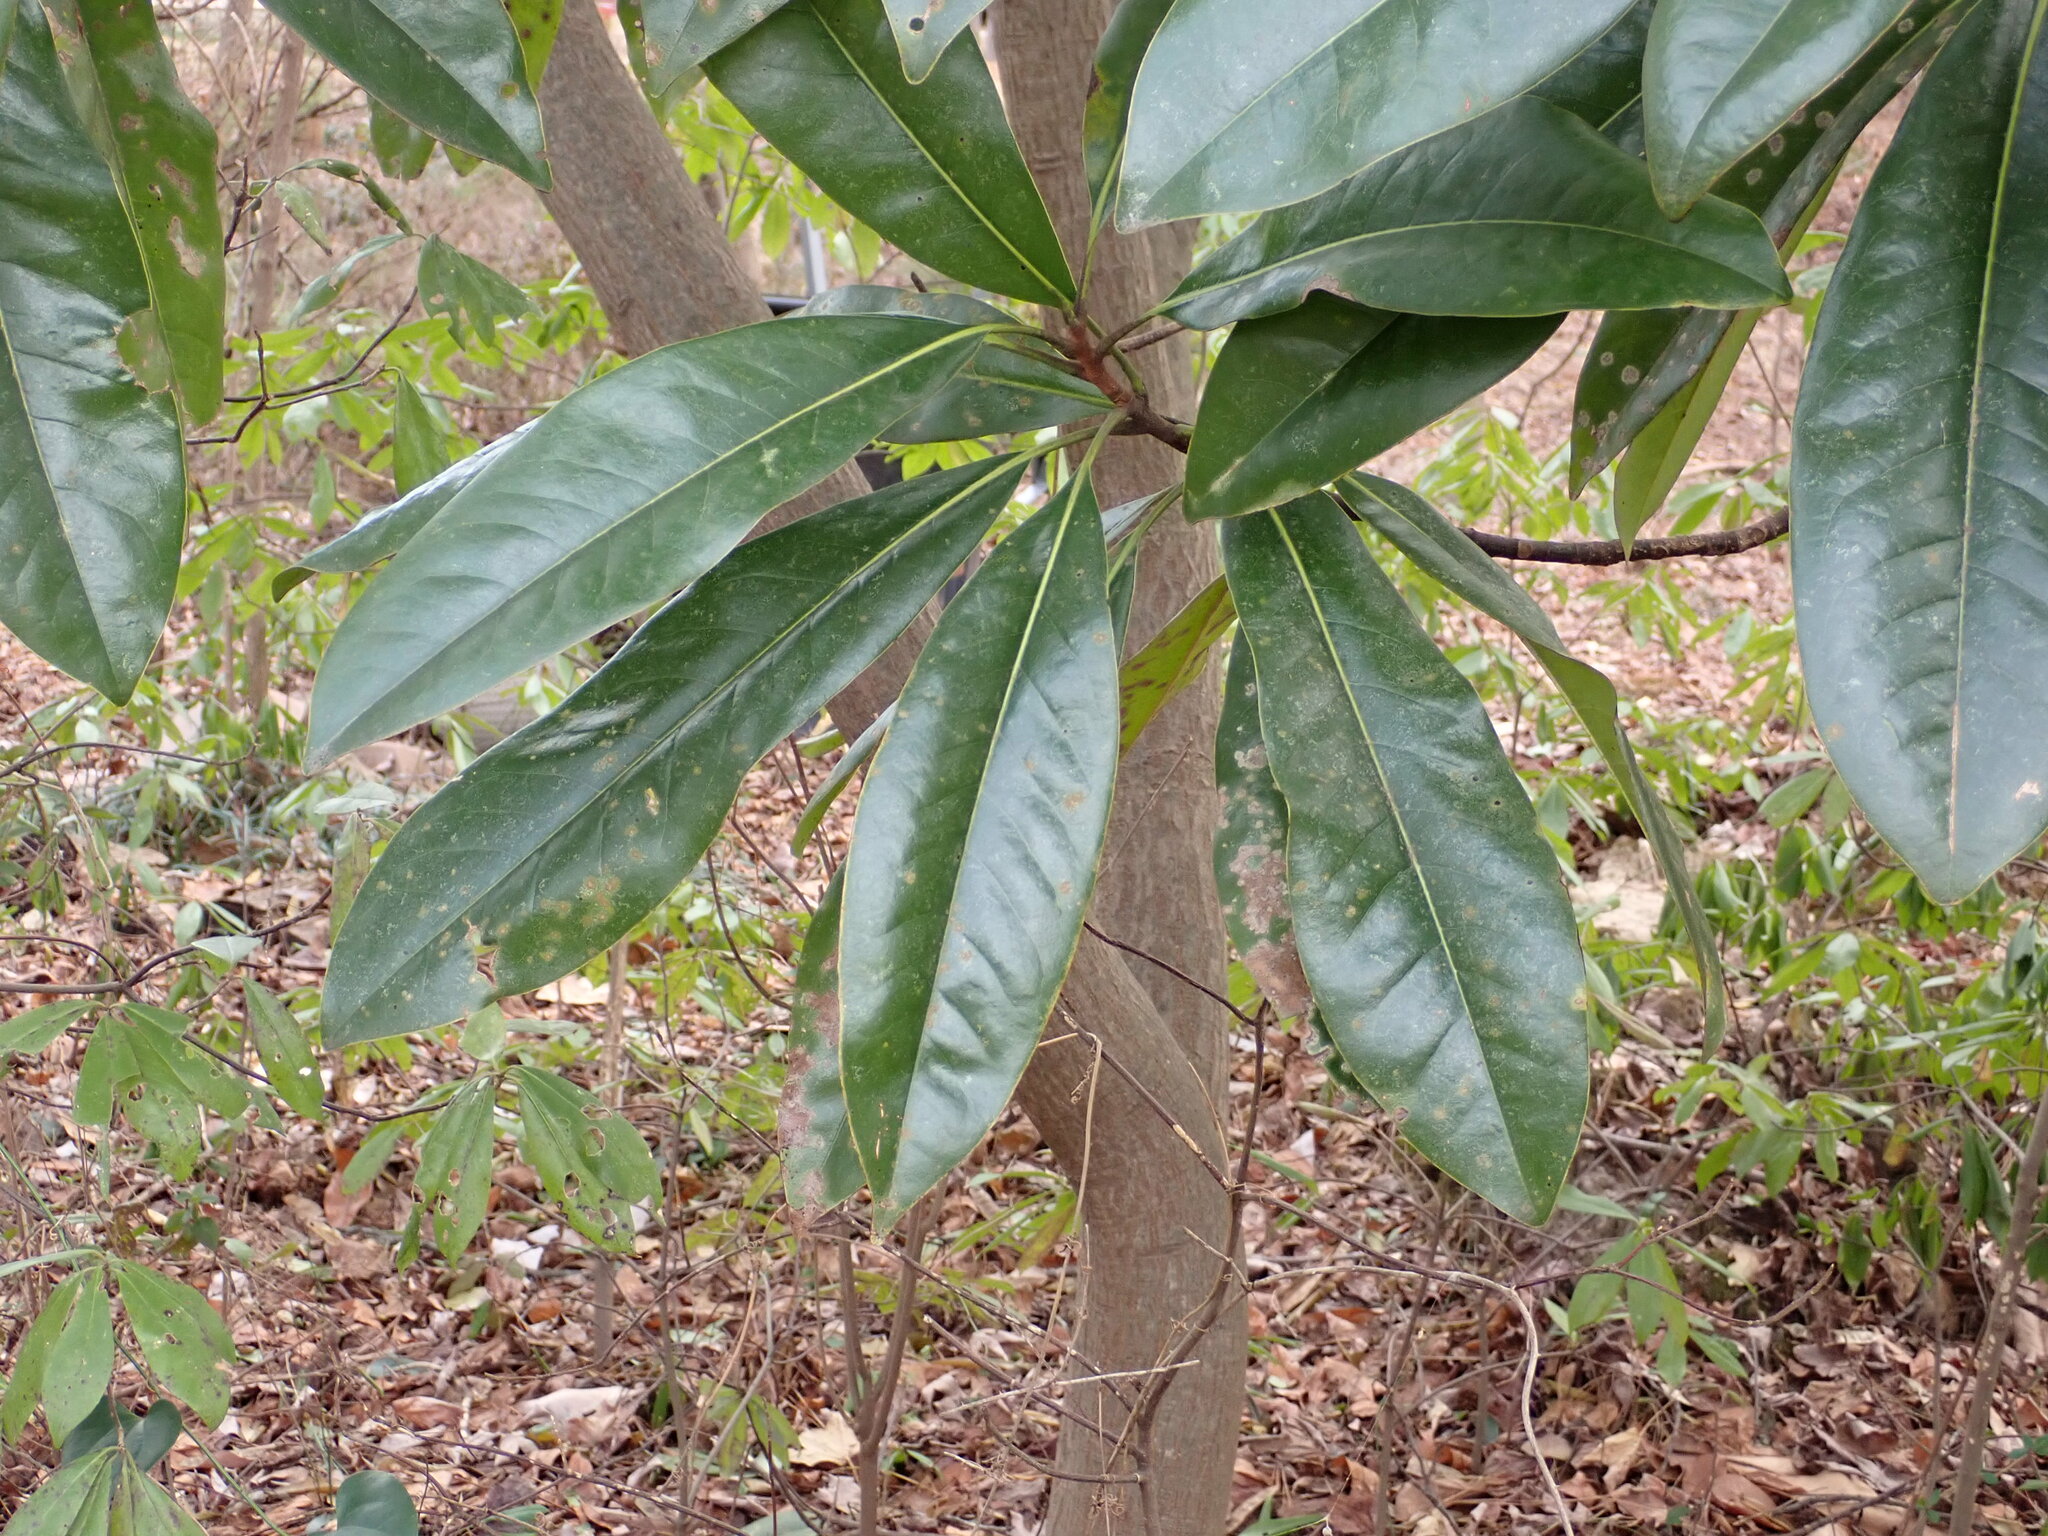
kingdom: Plantae
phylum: Tracheophyta
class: Magnoliopsida
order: Magnoliales
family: Magnoliaceae
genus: Magnolia
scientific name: Magnolia grandiflora
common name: Southern magnolia
